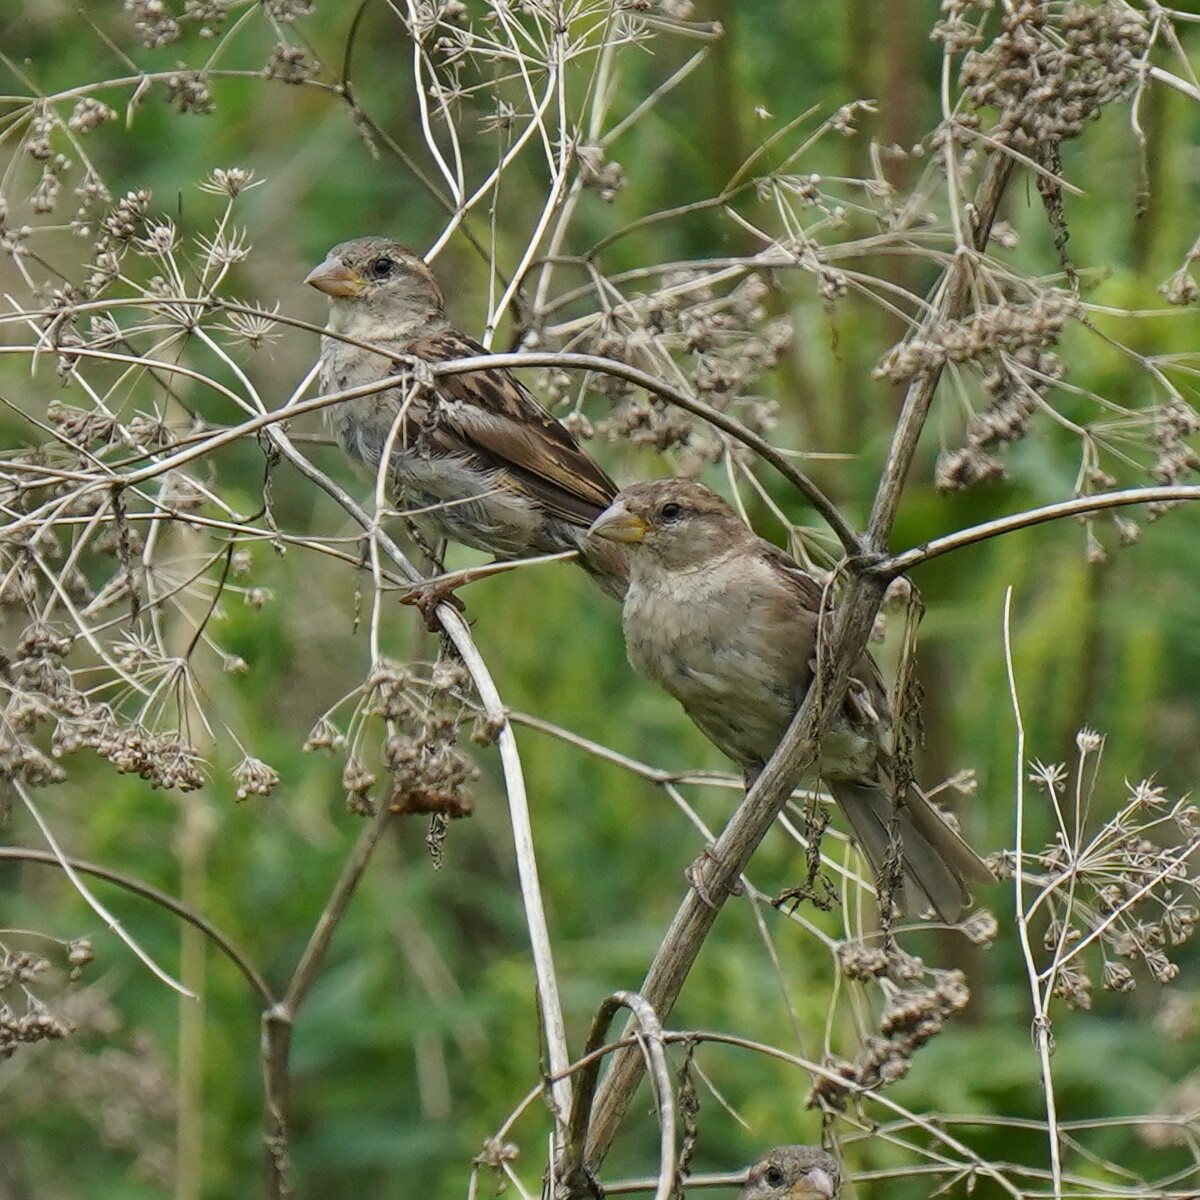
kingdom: Animalia
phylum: Chordata
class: Aves
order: Passeriformes
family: Passeridae
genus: Passer
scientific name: Passer domesticus
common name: House sparrow
